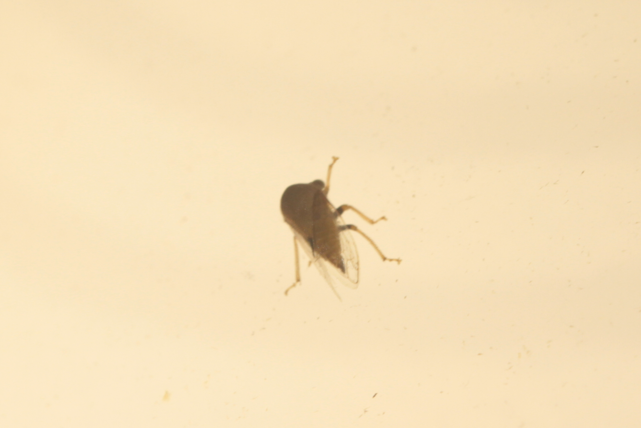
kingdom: Animalia
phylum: Arthropoda
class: Insecta
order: Hemiptera
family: Membracidae
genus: Procyrta
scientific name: Procyrta pectoralis
